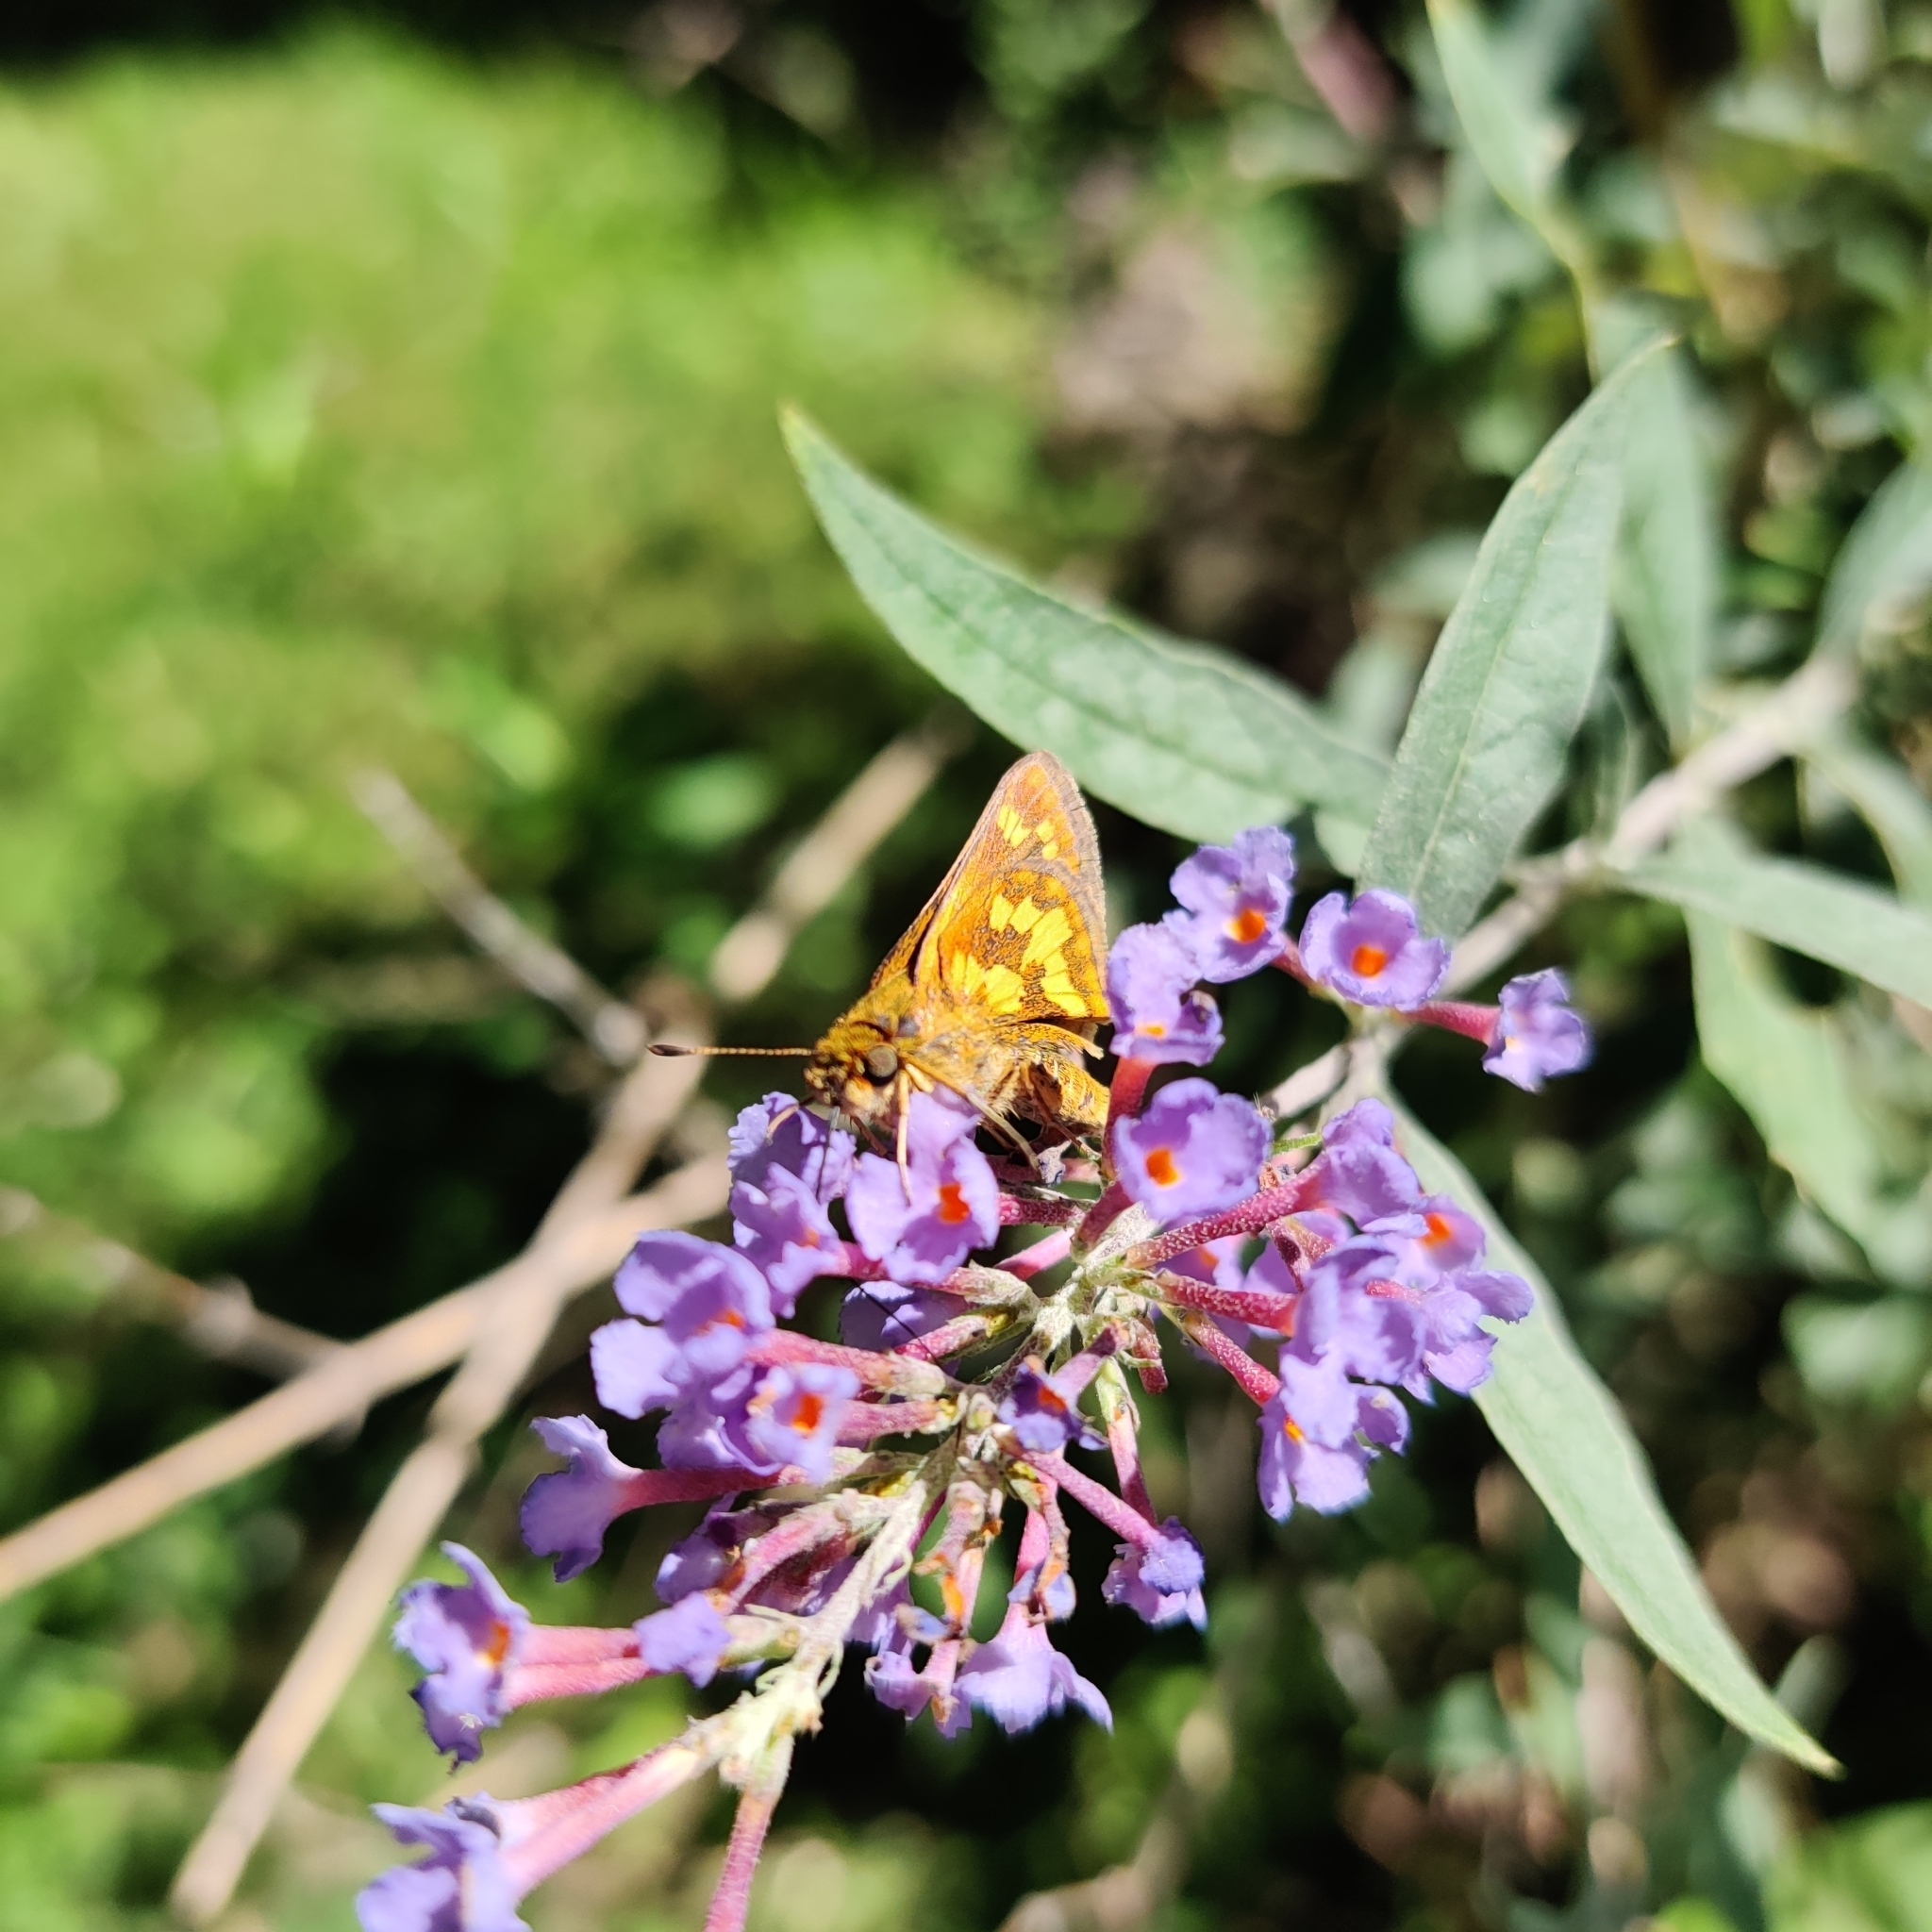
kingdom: Animalia
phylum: Arthropoda
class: Insecta
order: Lepidoptera
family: Hesperiidae
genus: Polites
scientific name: Polites coras
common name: Peck's skipper
